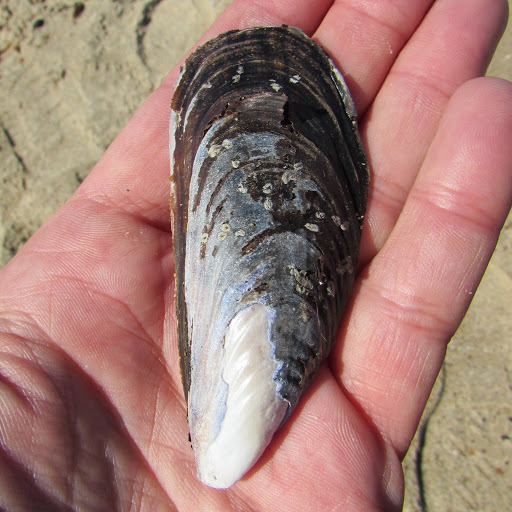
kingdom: Animalia
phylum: Mollusca
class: Bivalvia
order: Mytilida
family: Mytilidae
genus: Mytilus
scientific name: Mytilus californianus
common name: California mussel
